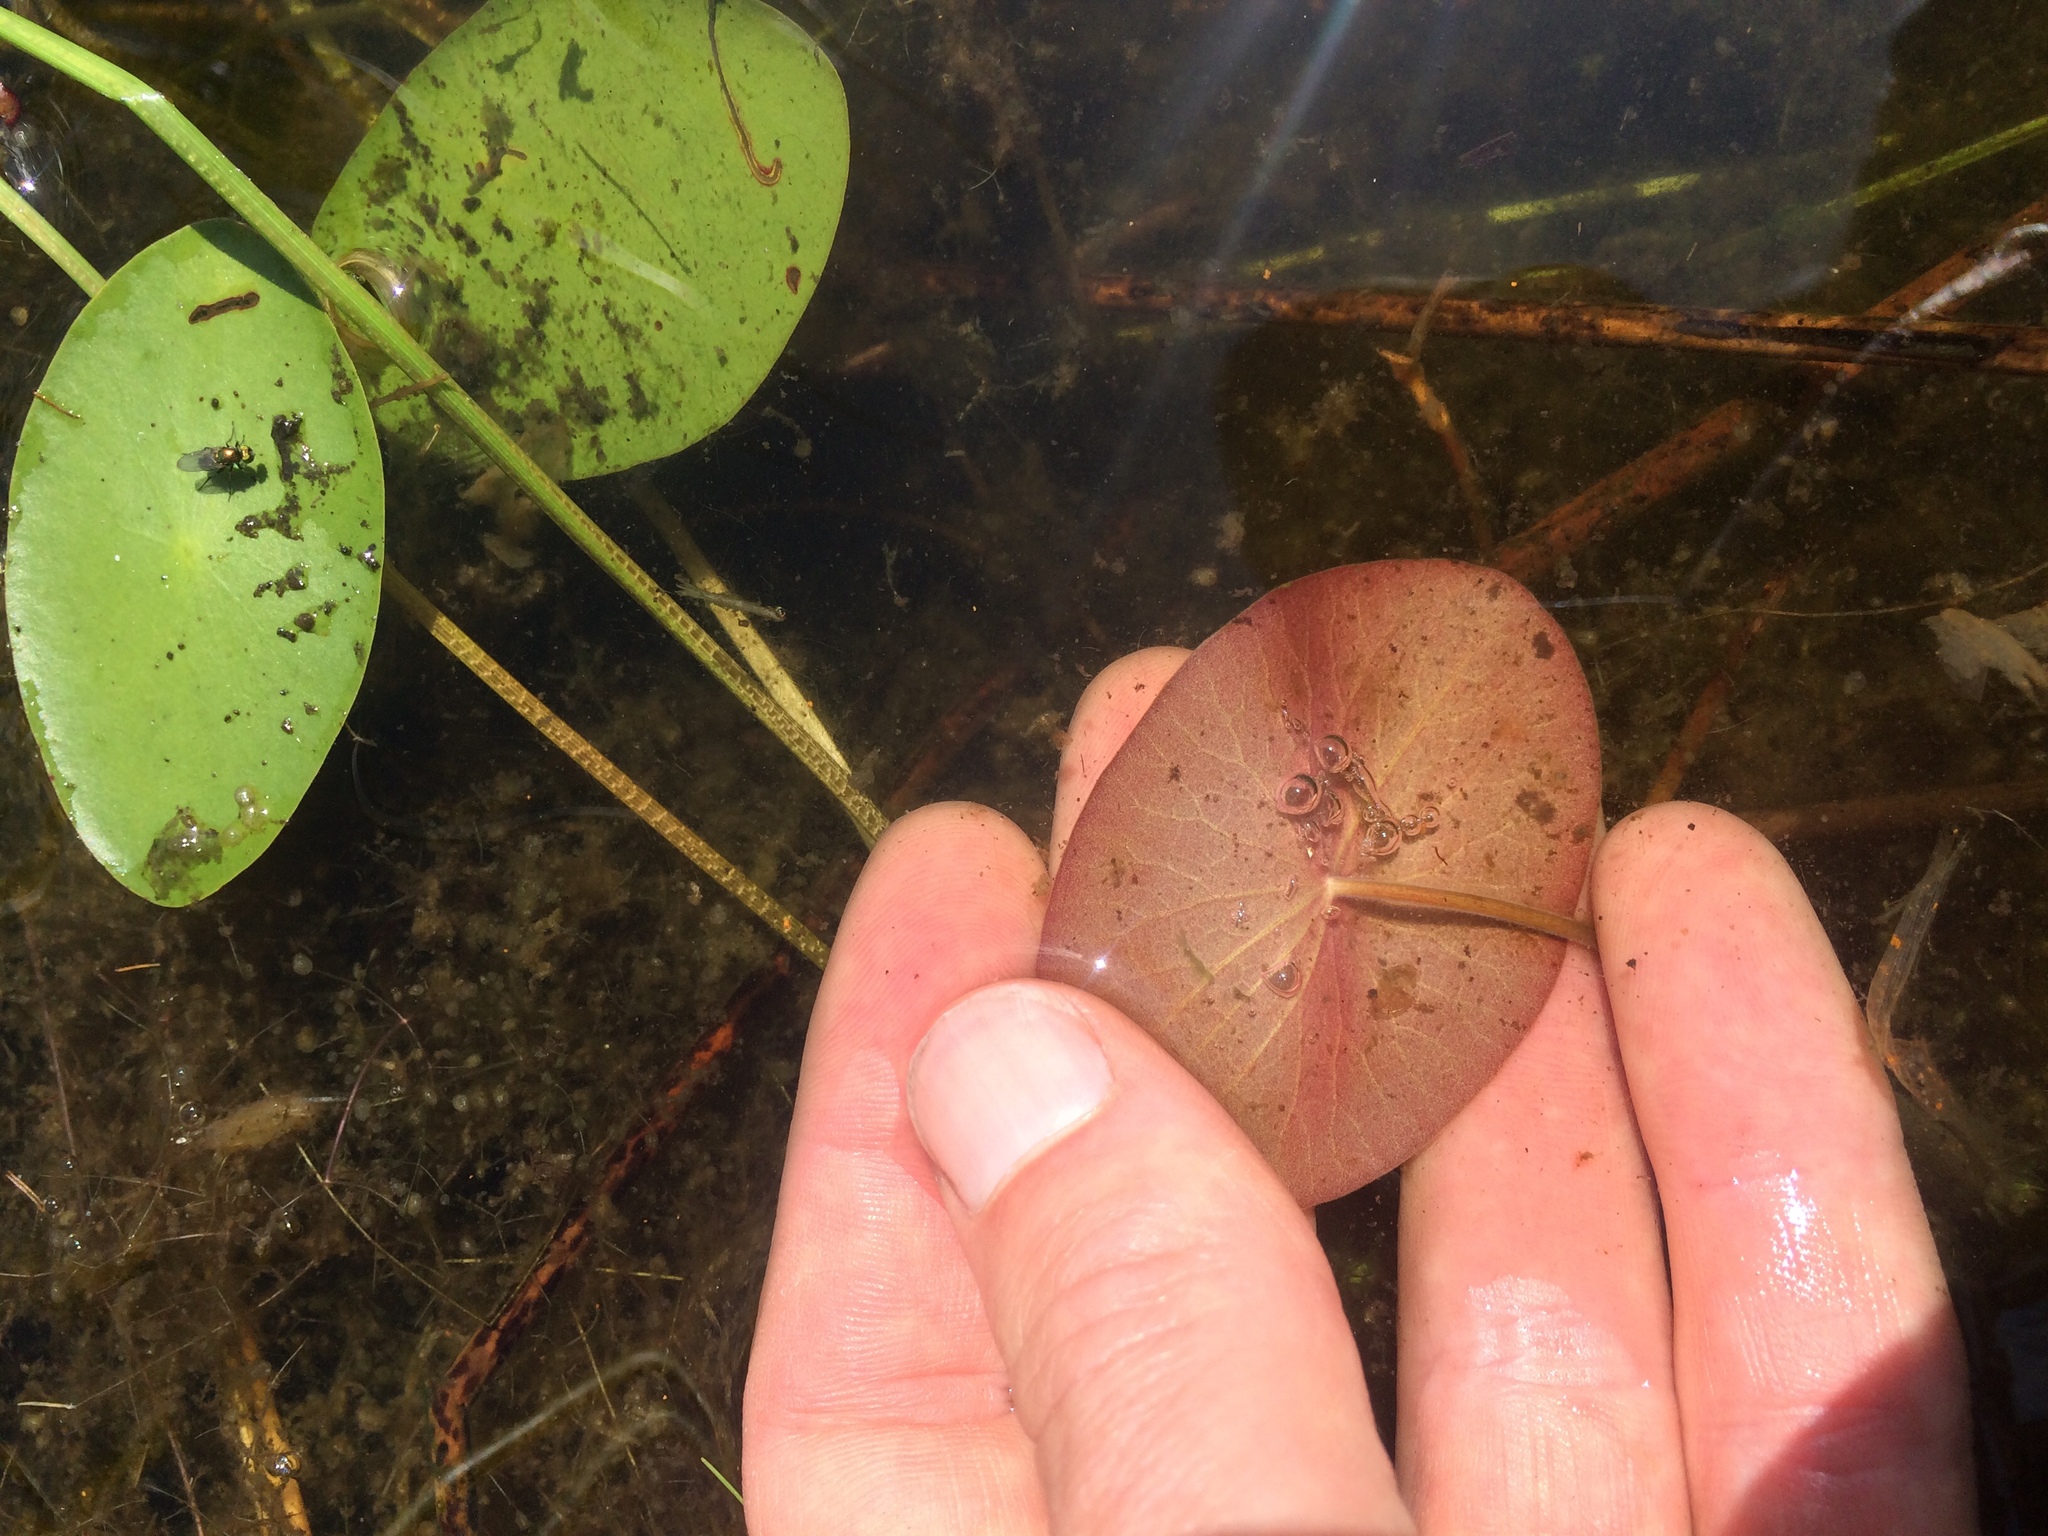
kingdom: Plantae
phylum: Tracheophyta
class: Magnoliopsida
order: Nymphaeales
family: Cabombaceae
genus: Brasenia
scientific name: Brasenia schreberi
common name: Water-shield
